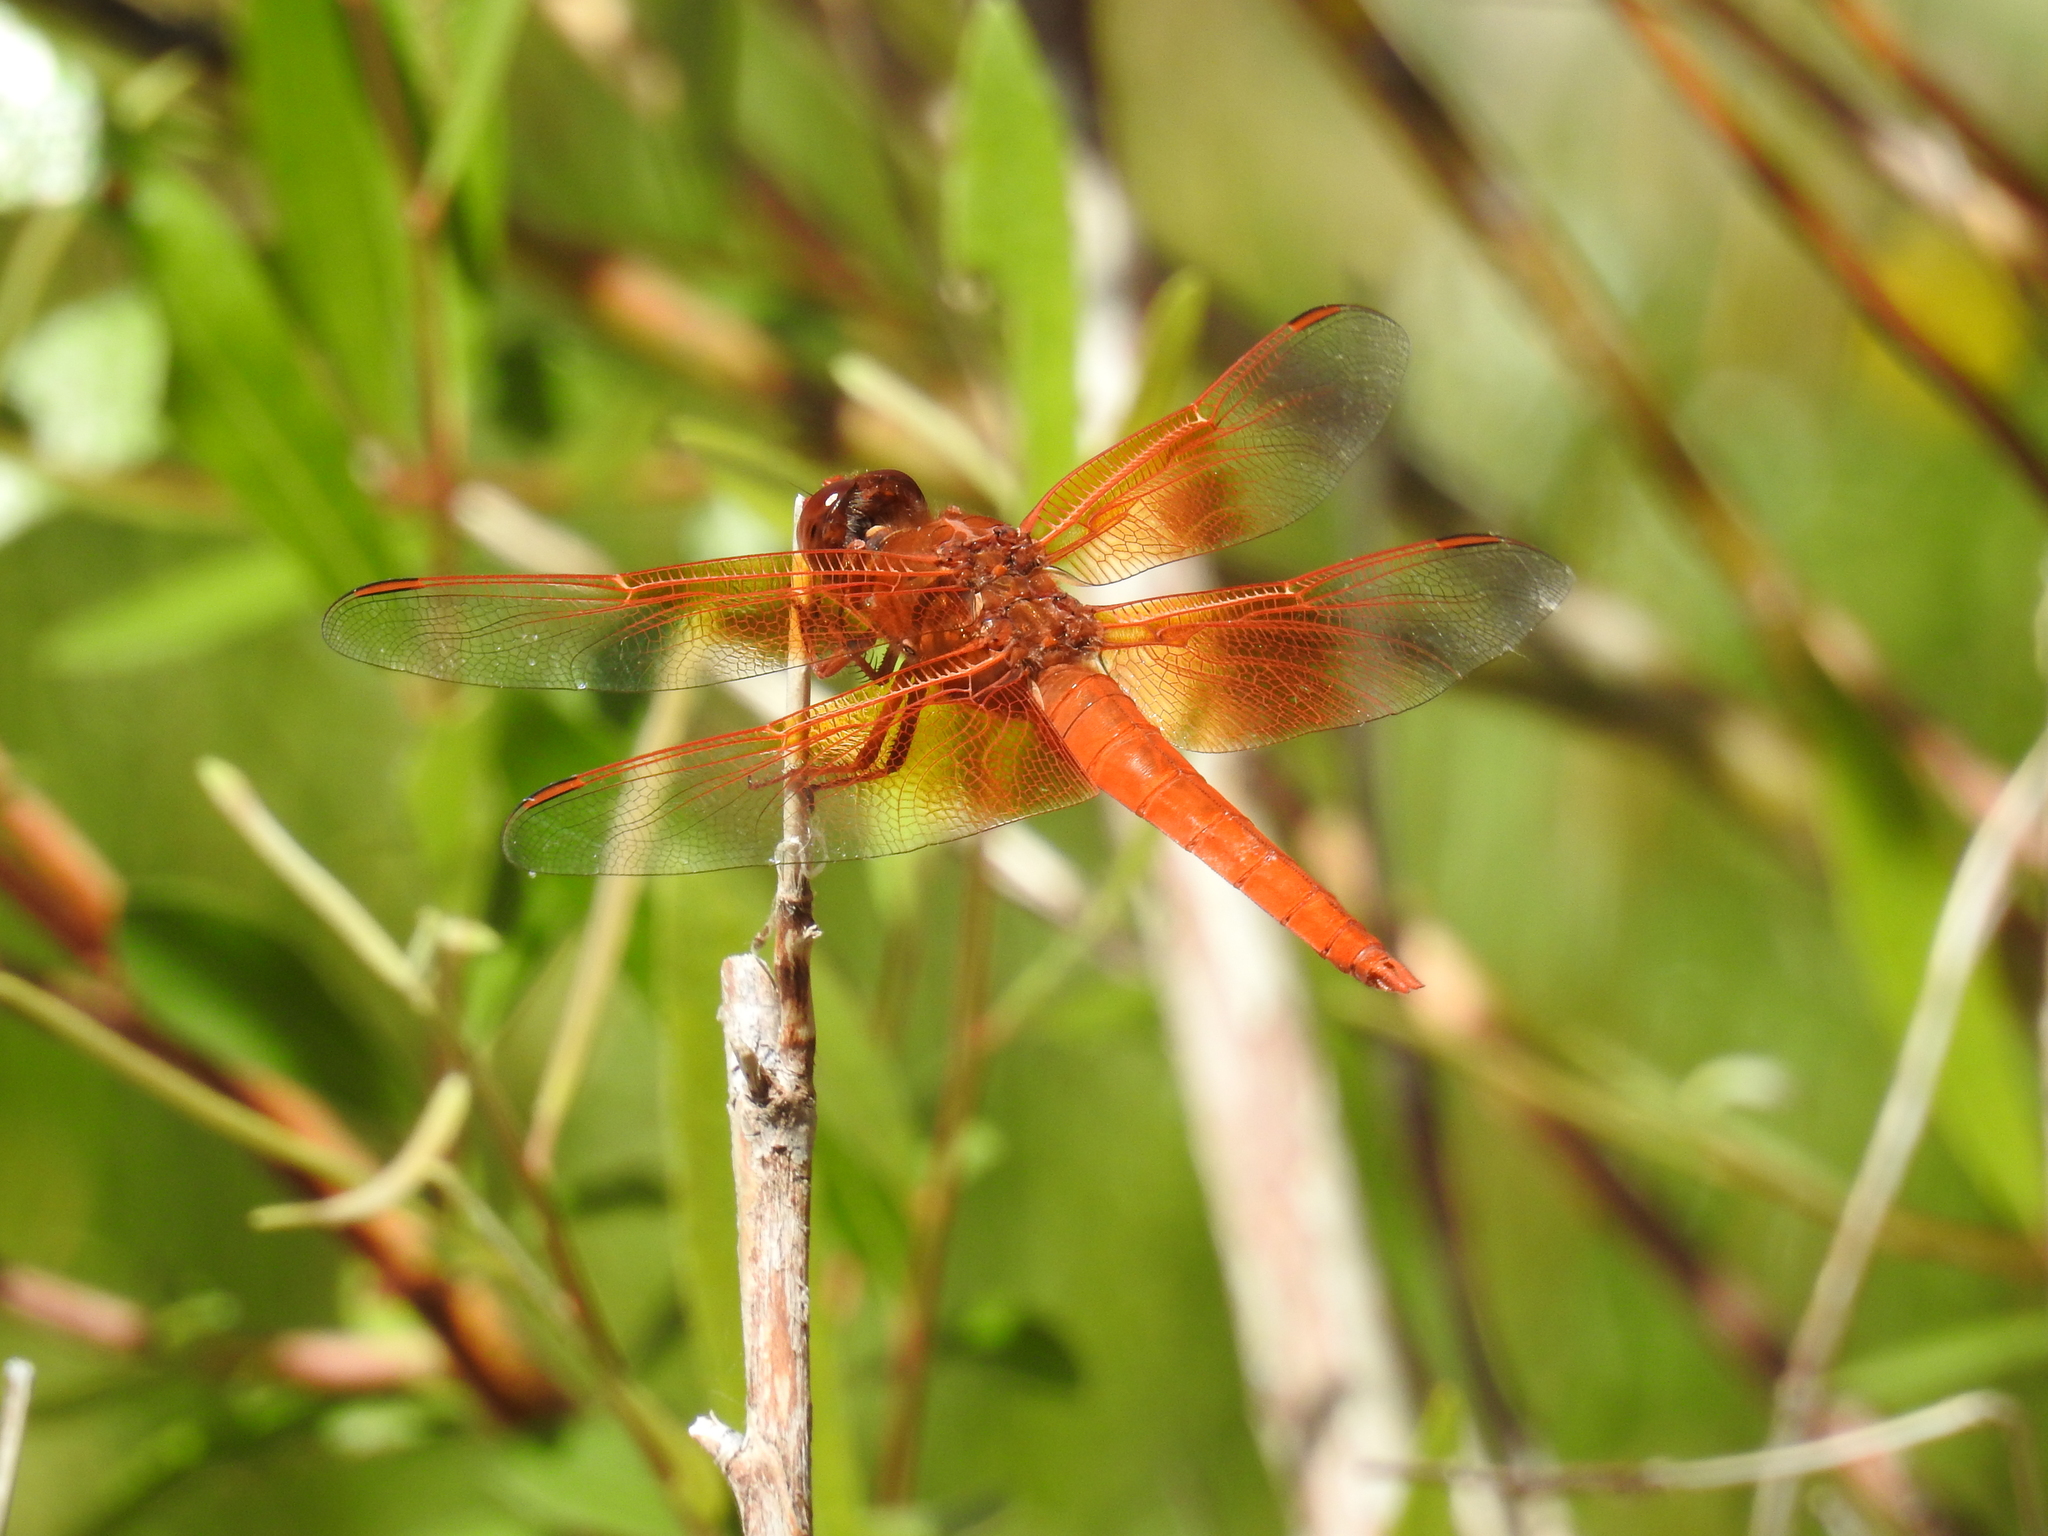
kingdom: Animalia
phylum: Arthropoda
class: Insecta
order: Odonata
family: Libellulidae
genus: Libellula
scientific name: Libellula saturata
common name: Flame skimmer
